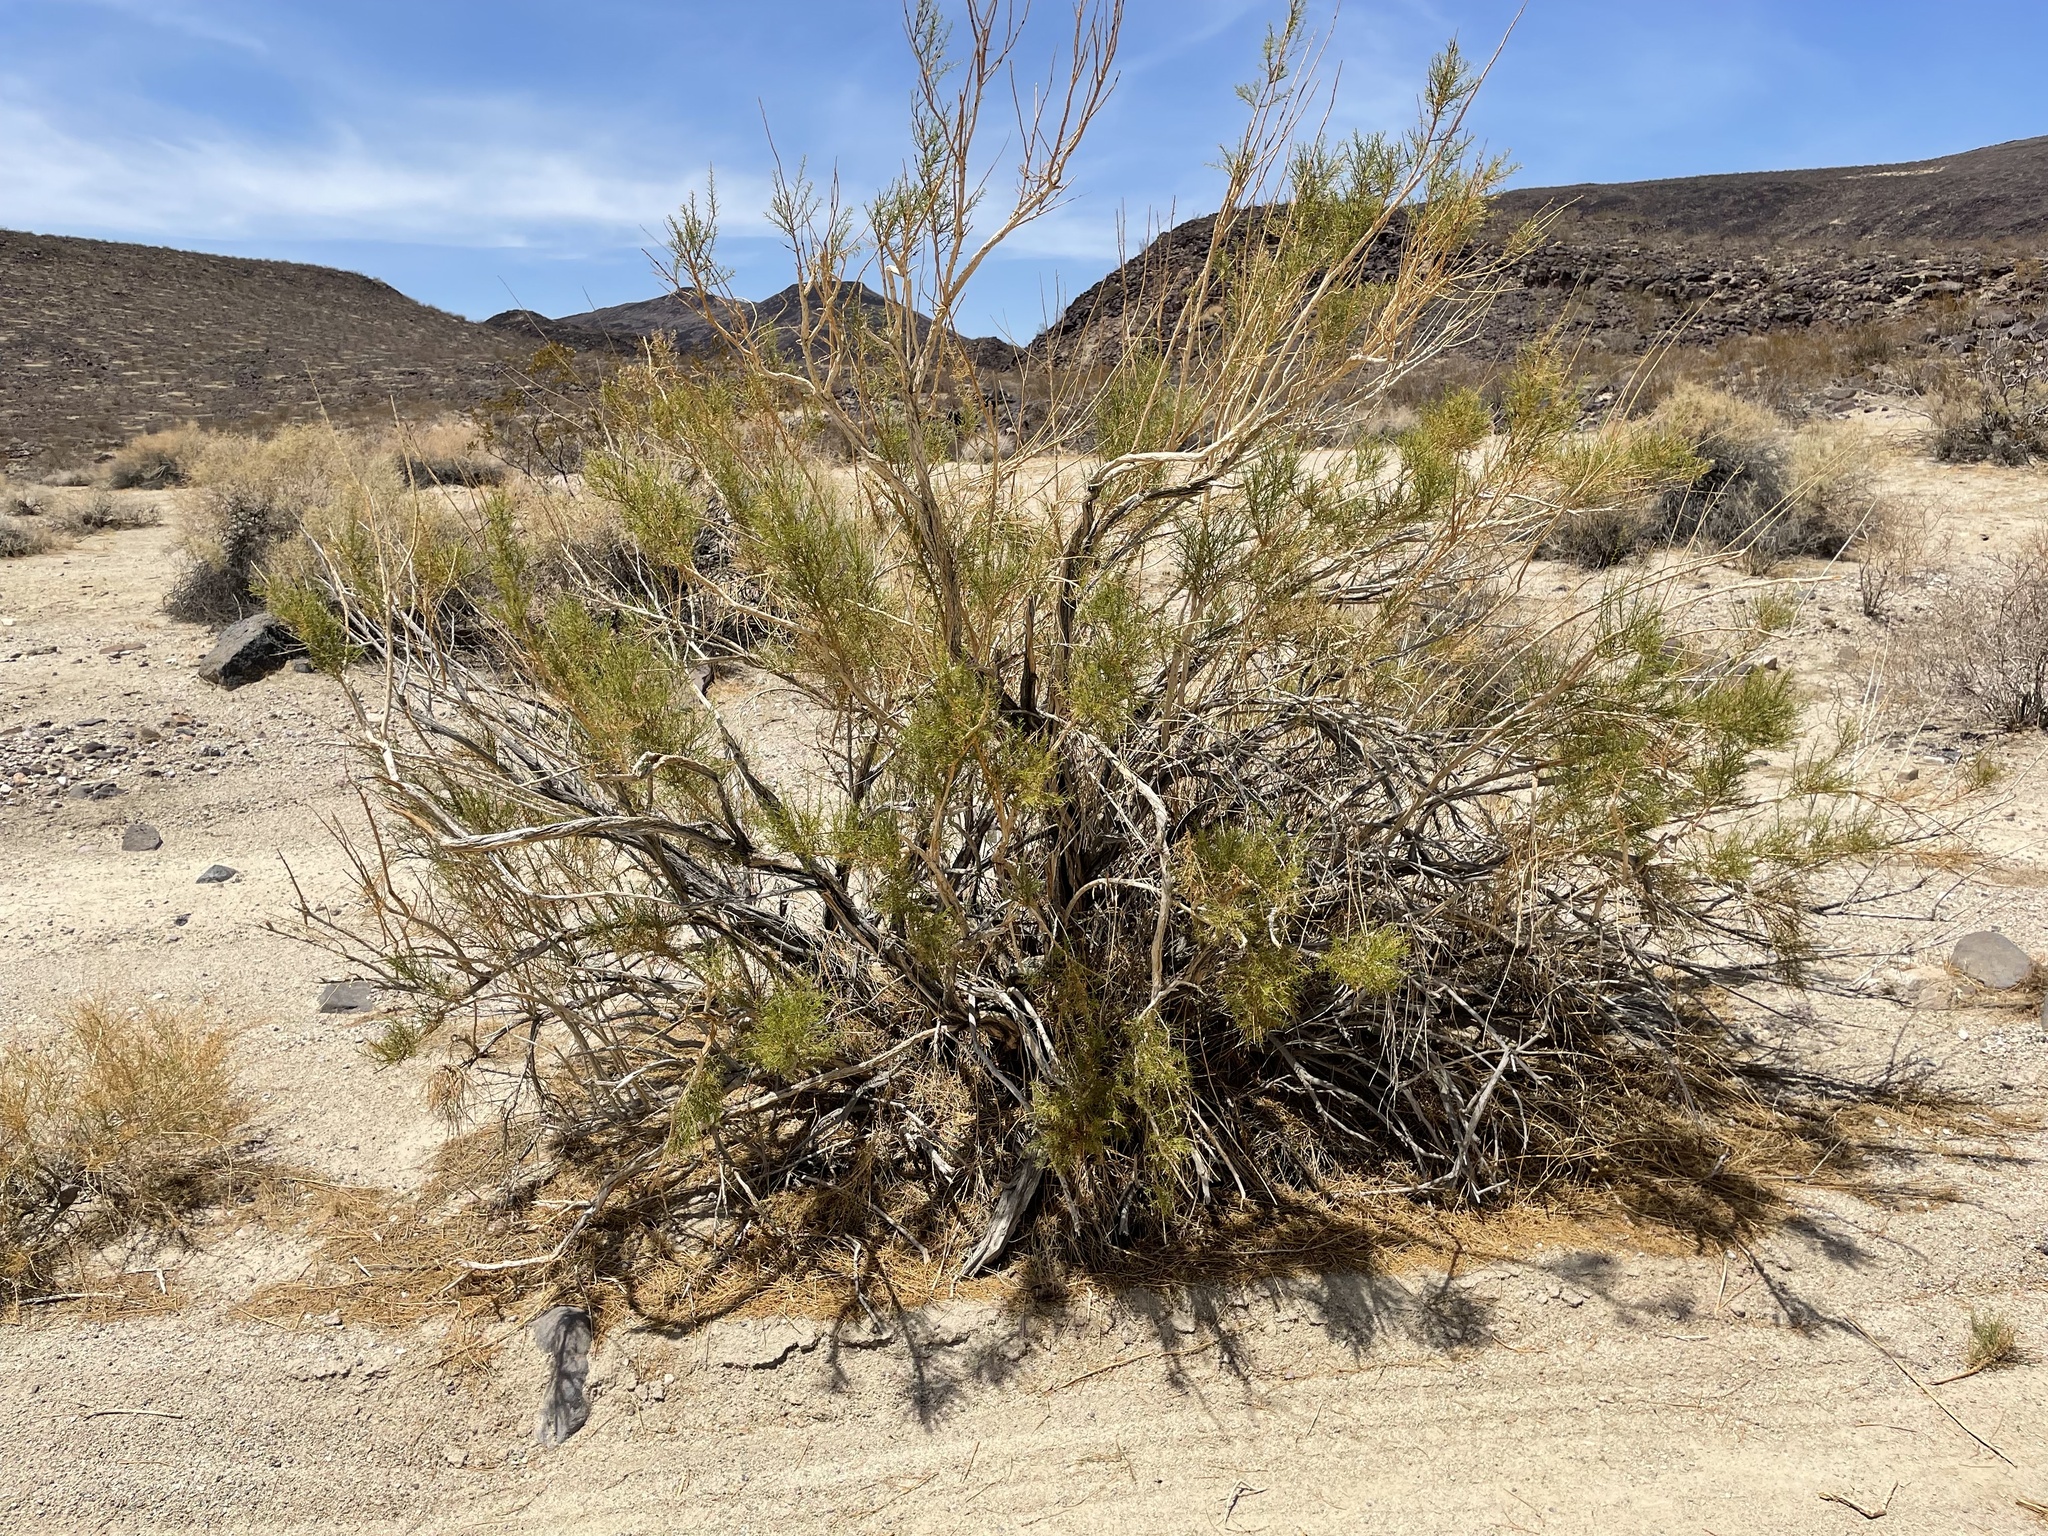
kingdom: Plantae
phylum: Tracheophyta
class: Magnoliopsida
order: Asterales
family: Asteraceae
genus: Ericameria
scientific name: Ericameria paniculata
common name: Punctate rabbitbrush
